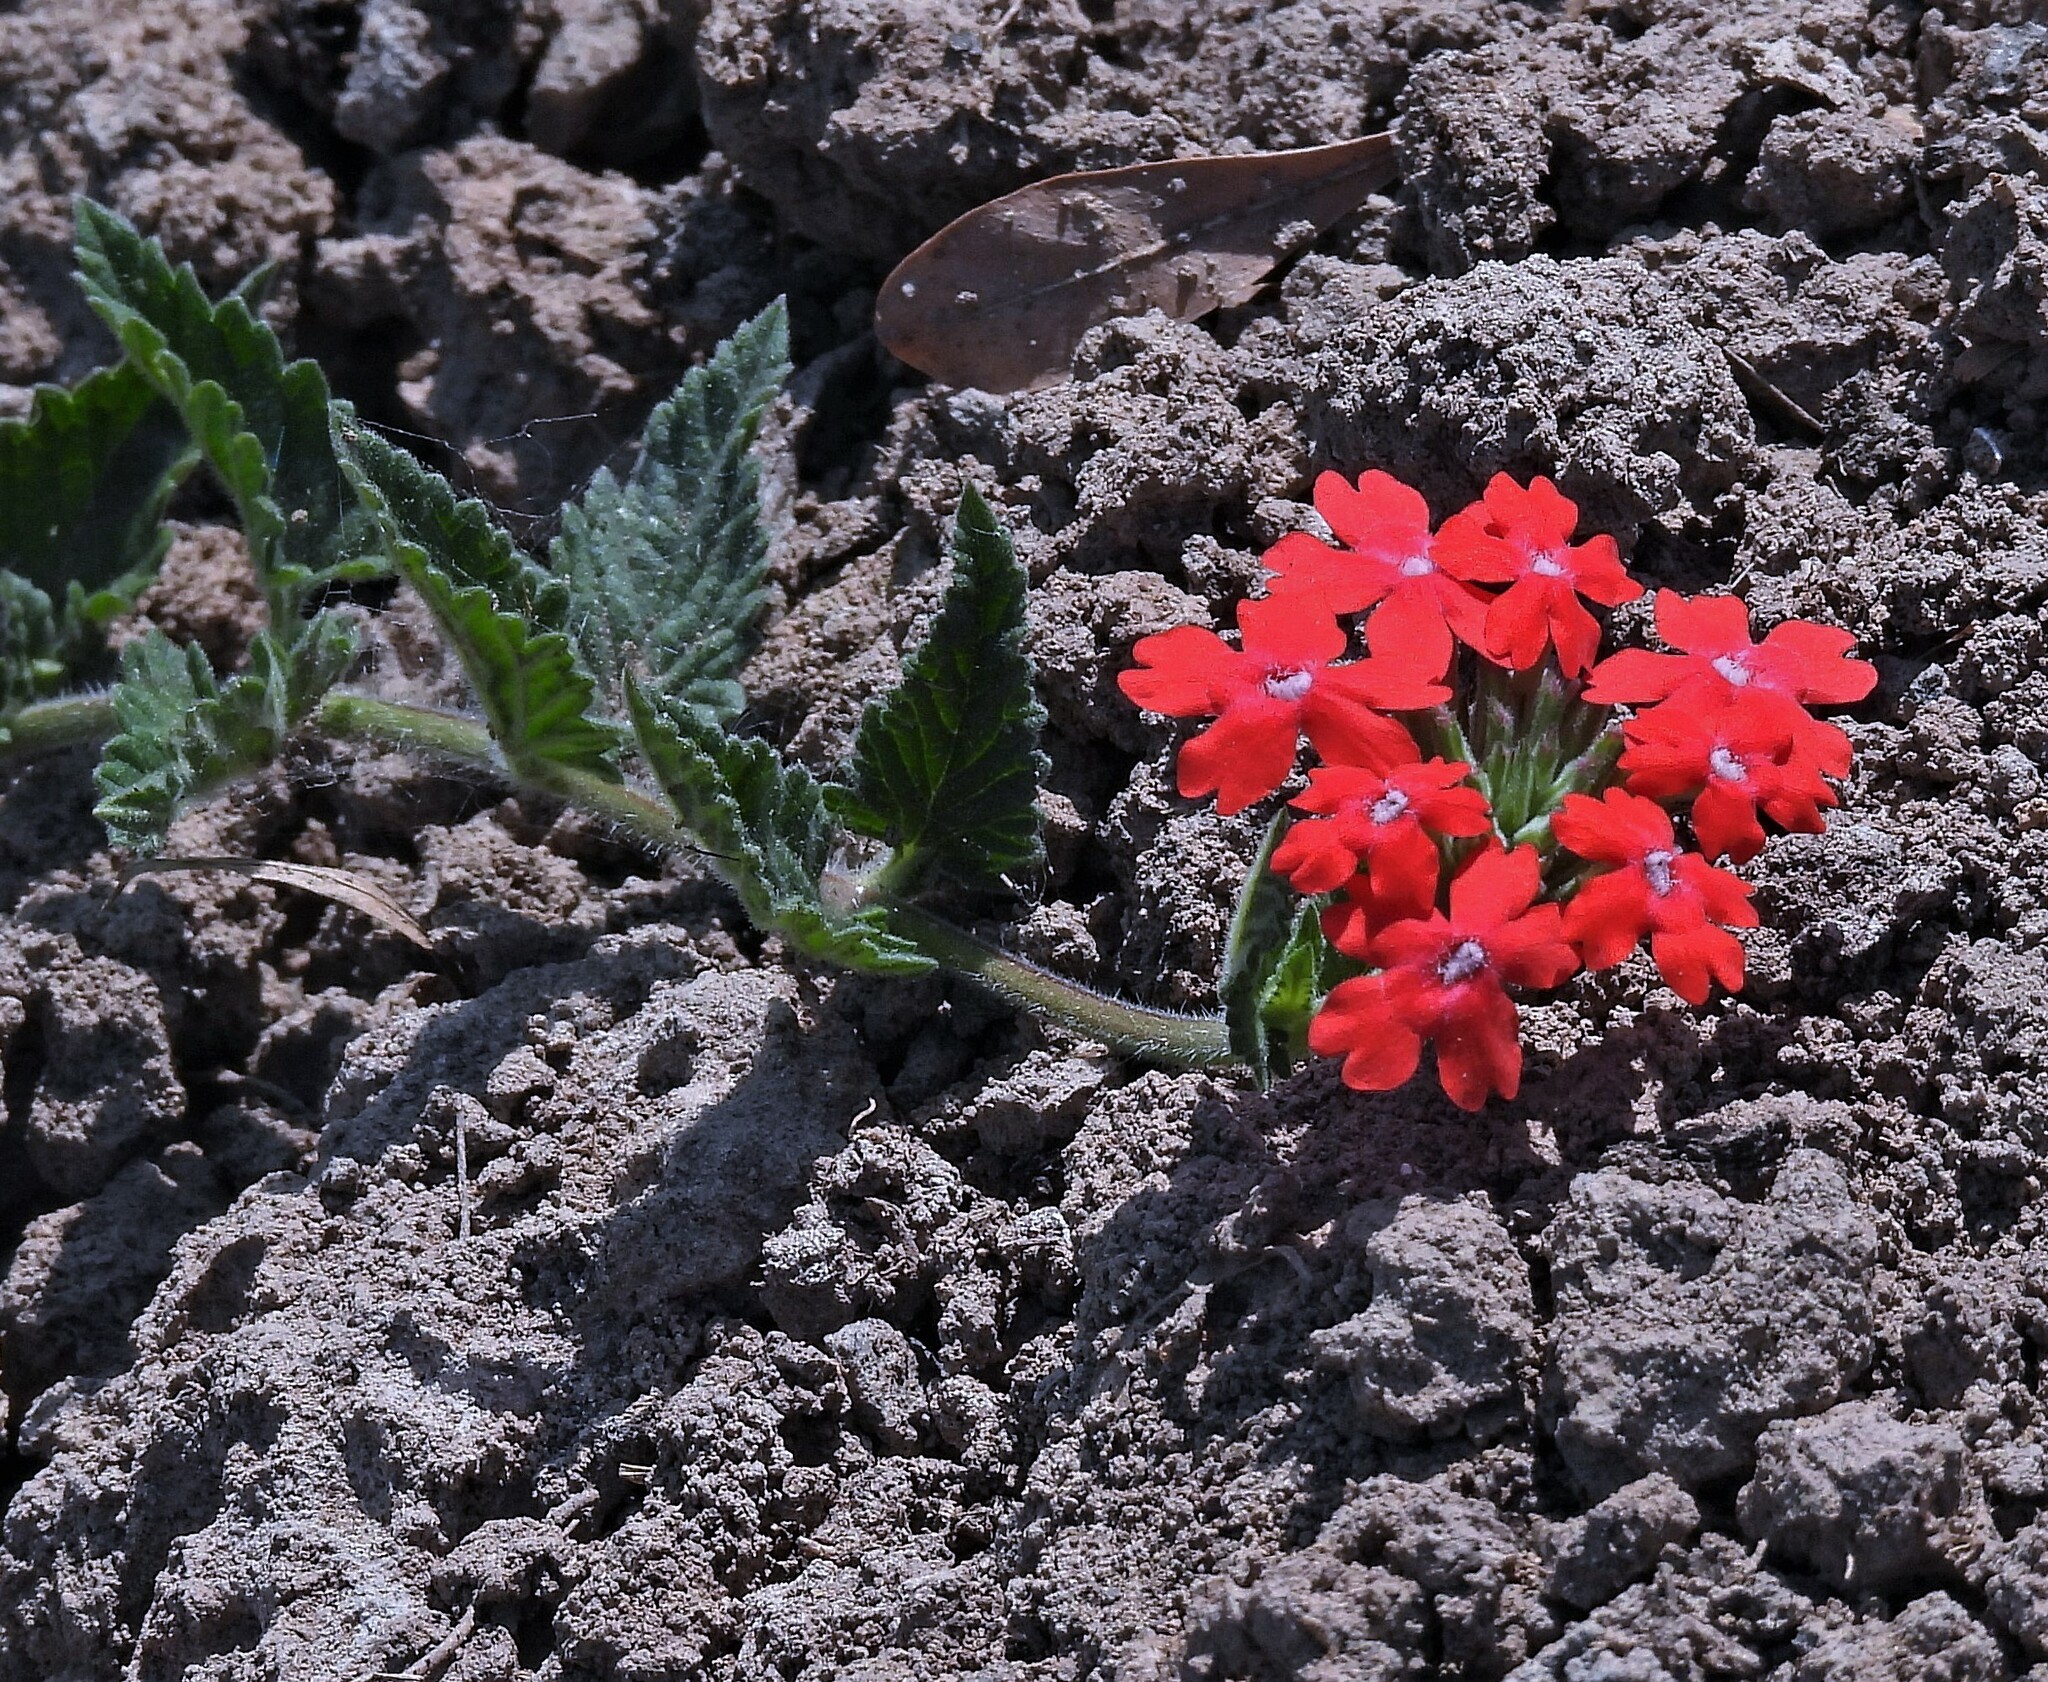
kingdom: Plantae
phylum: Tracheophyta
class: Magnoliopsida
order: Lamiales
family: Verbenaceae
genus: Verbena
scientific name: Verbena tweedieana
